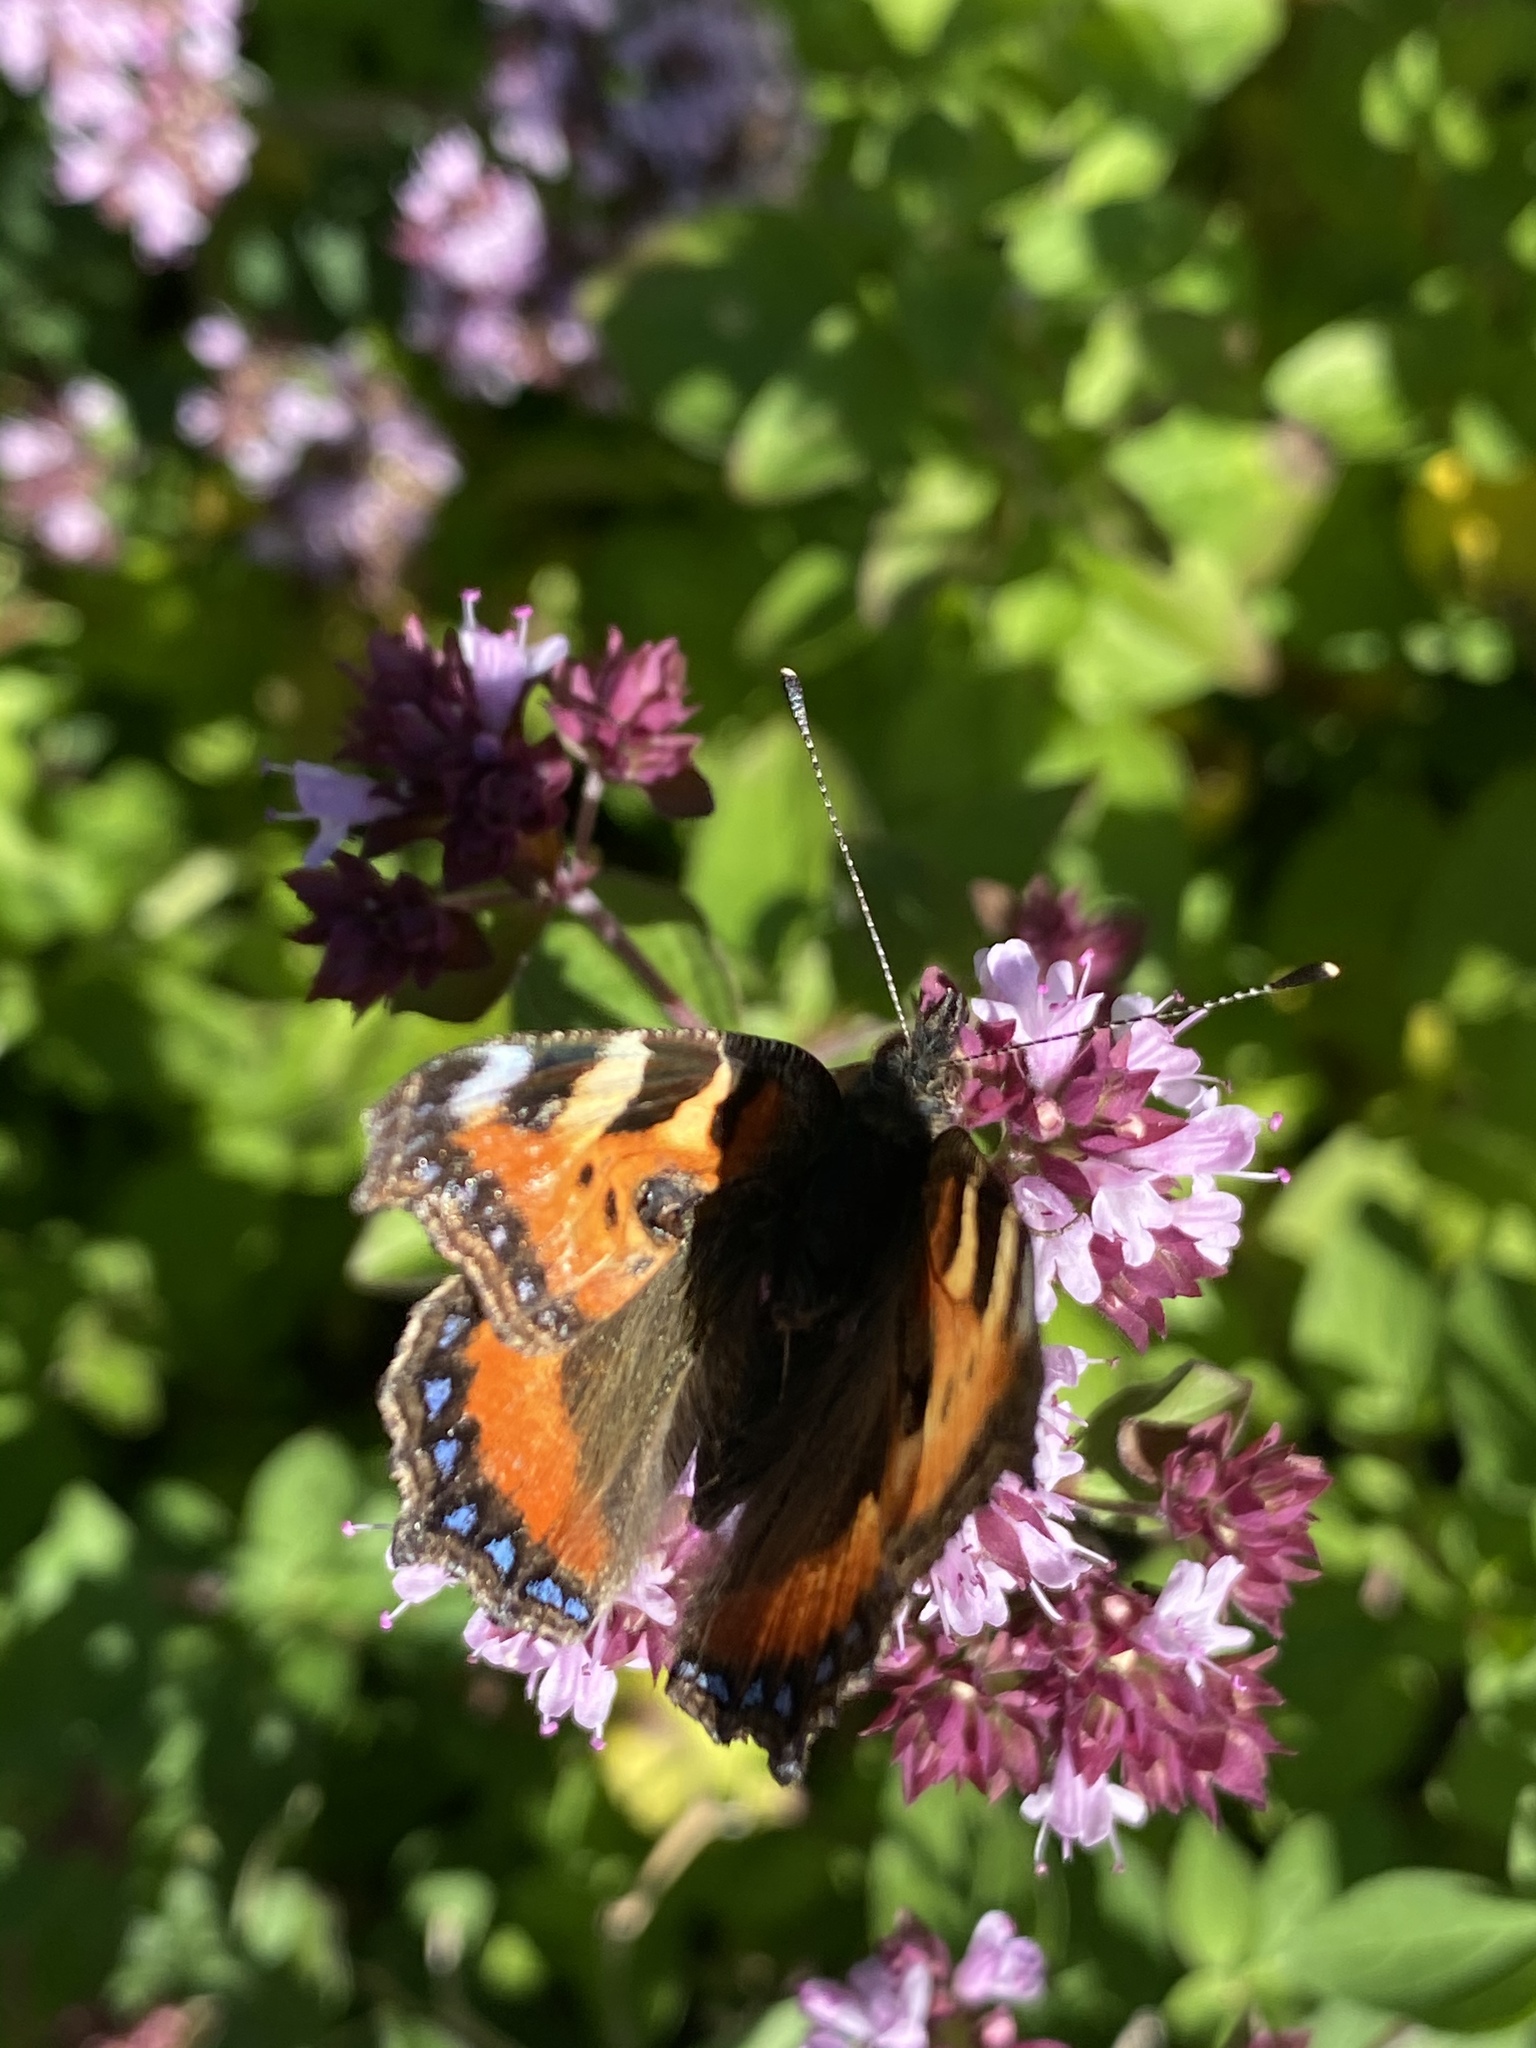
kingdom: Animalia
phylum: Arthropoda
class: Insecta
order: Lepidoptera
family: Nymphalidae
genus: Aglais
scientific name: Aglais urticae
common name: Small tortoiseshell
